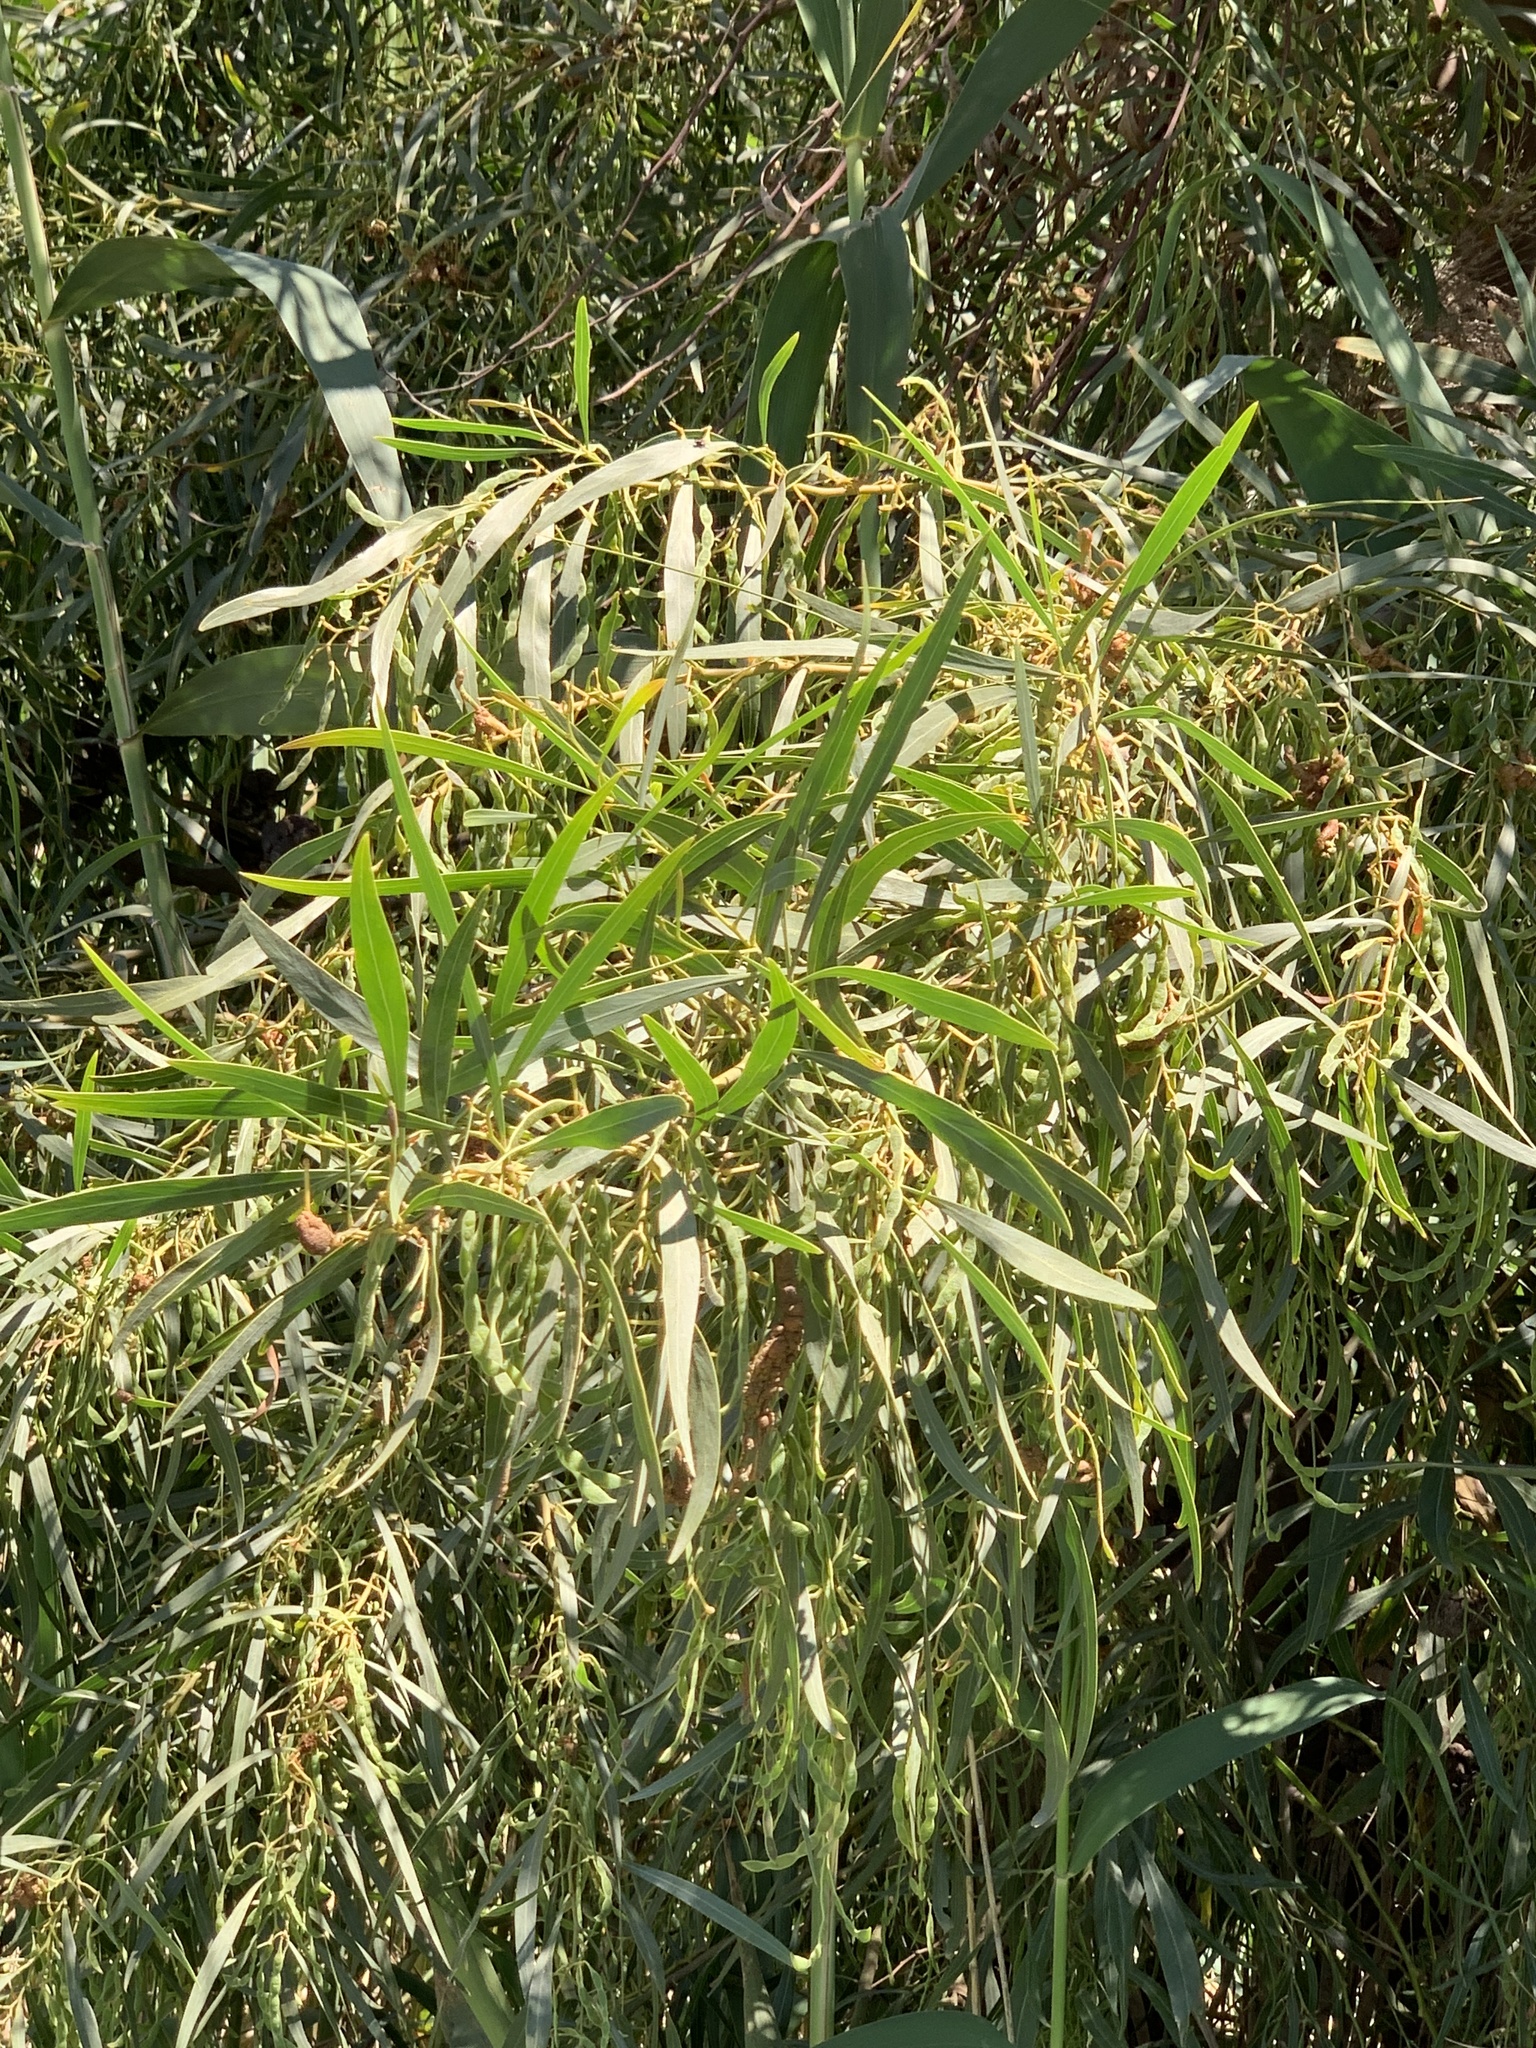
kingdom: Plantae
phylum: Tracheophyta
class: Magnoliopsida
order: Fabales
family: Fabaceae
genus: Acacia
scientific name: Acacia saligna
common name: Orange wattle
